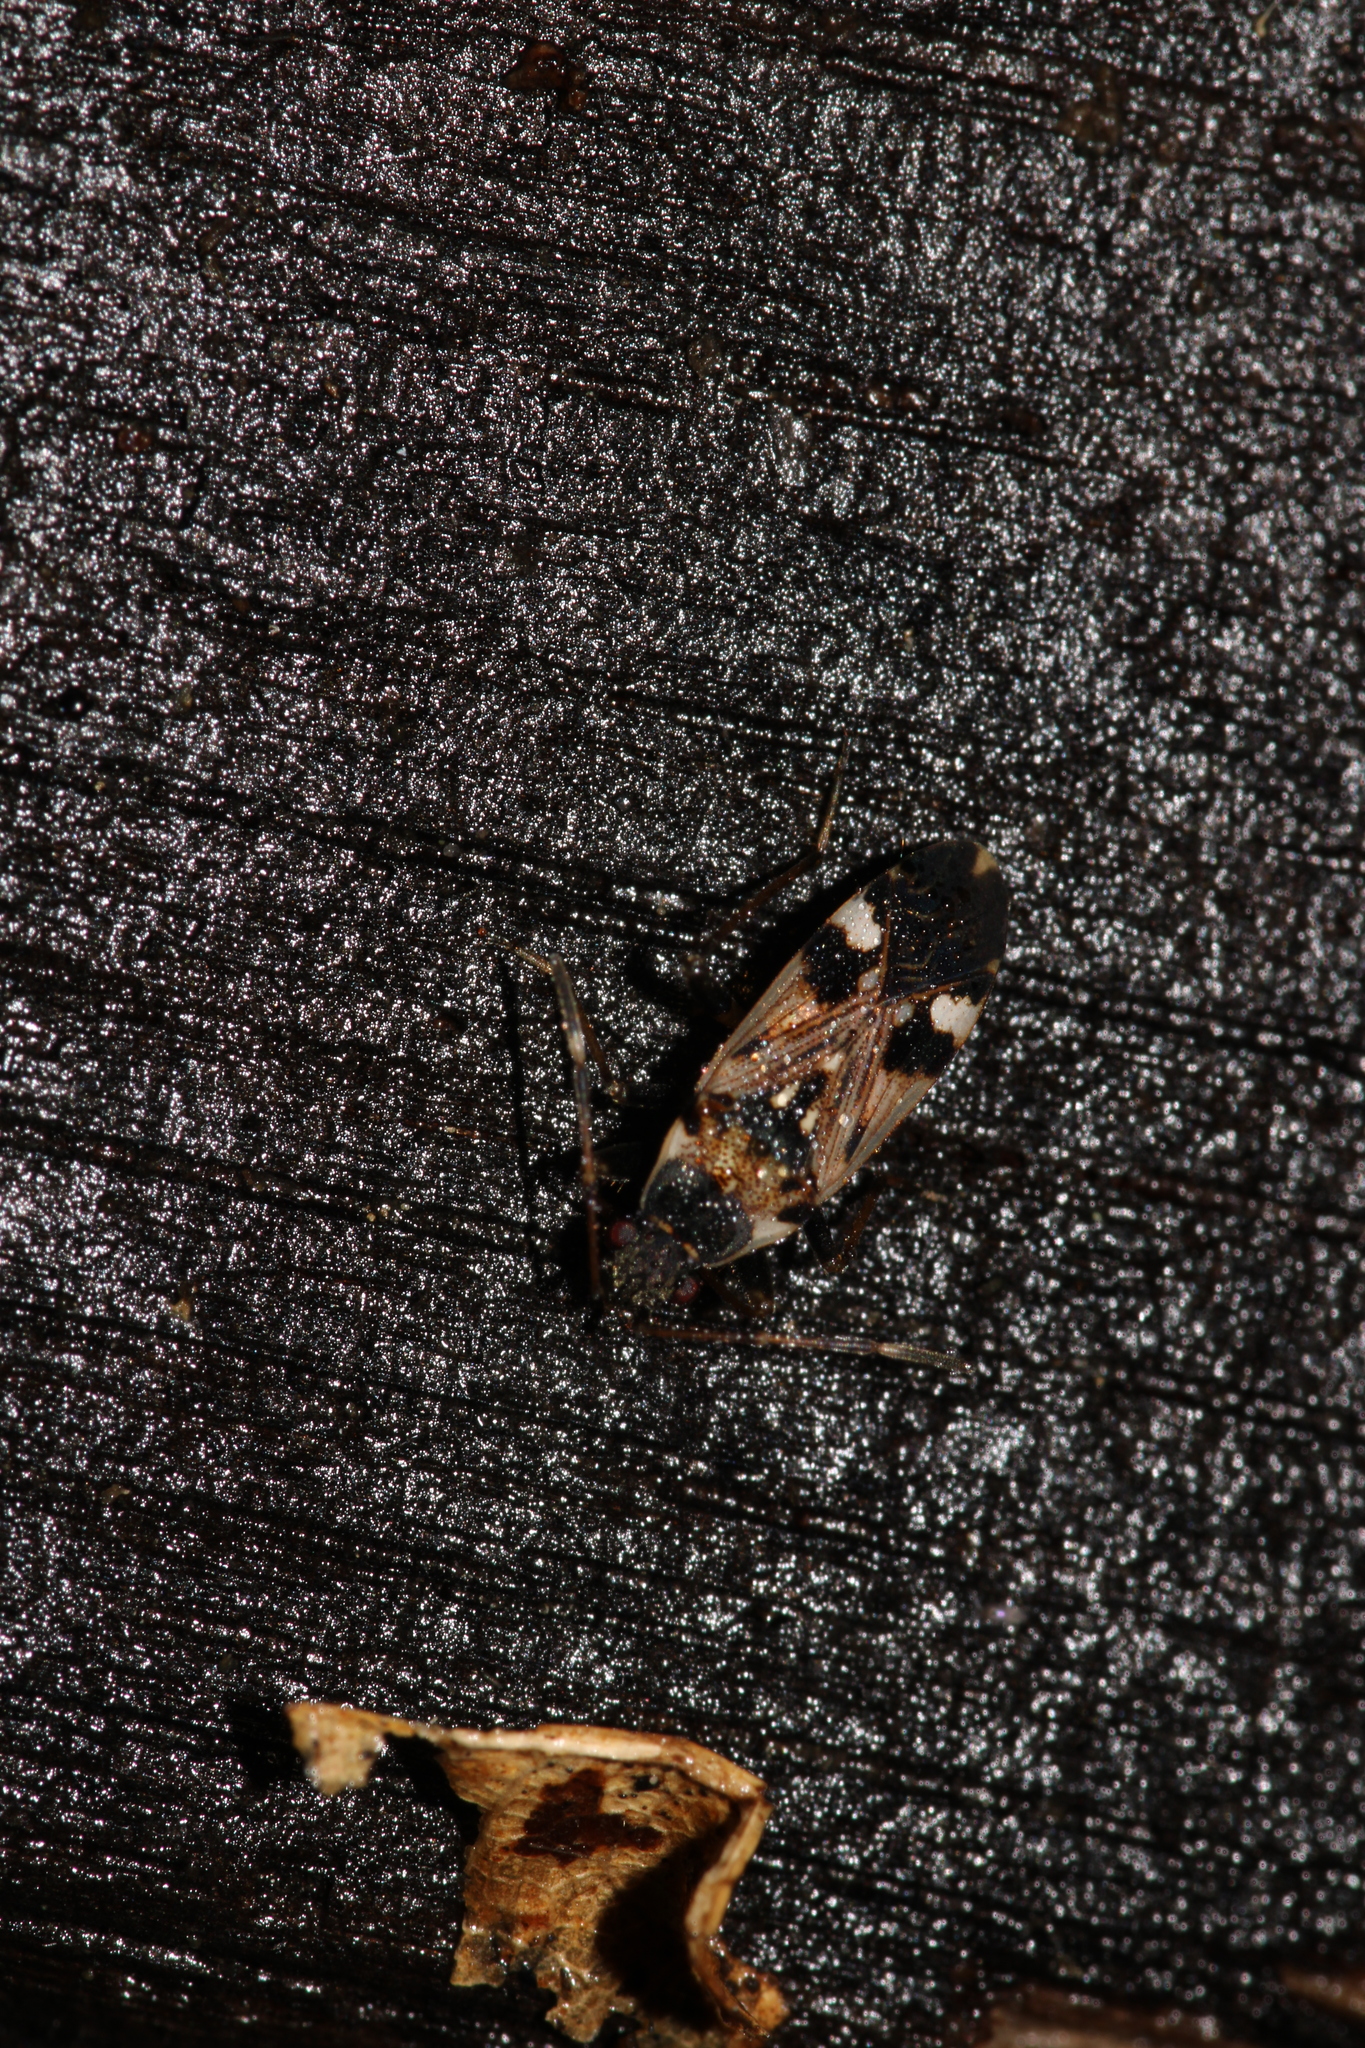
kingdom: Animalia
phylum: Arthropoda
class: Insecta
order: Hemiptera
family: Rhyparochromidae
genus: Beosus
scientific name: Beosus maritimus
